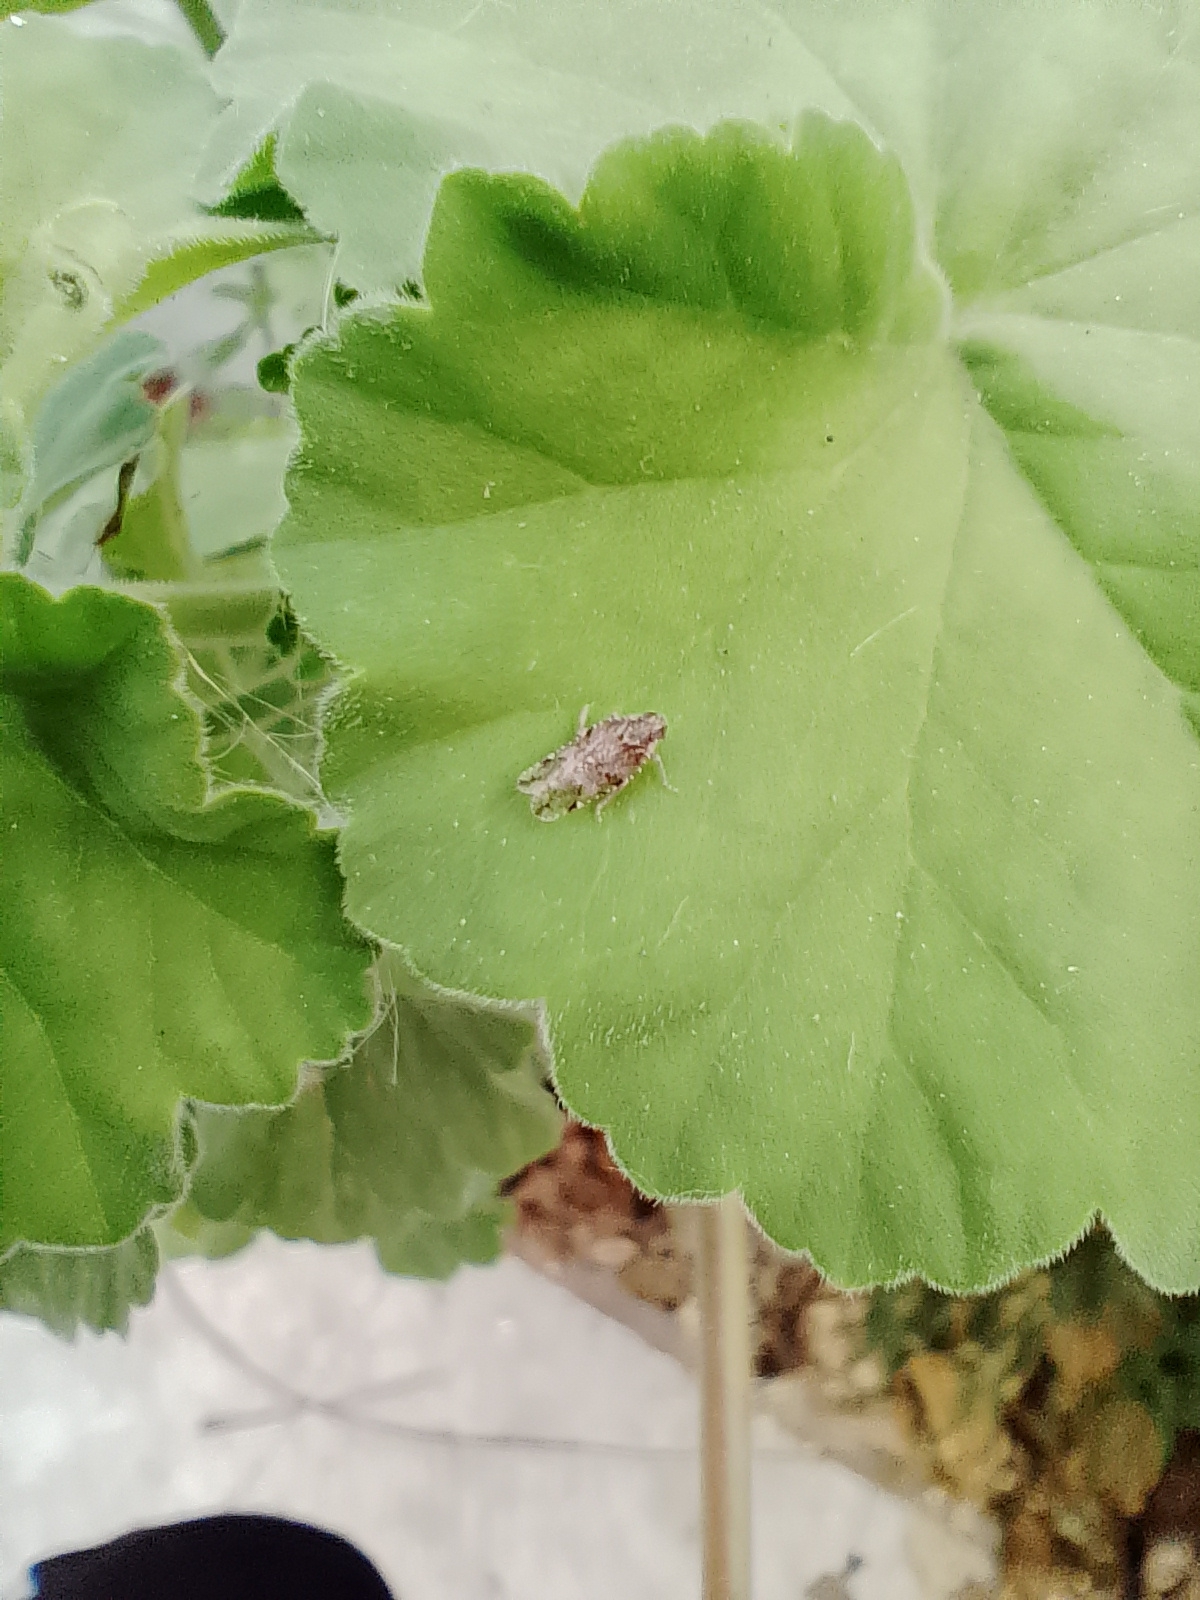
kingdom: Animalia
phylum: Arthropoda
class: Insecta
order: Hemiptera
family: Cixiidae
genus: Cixiosoma
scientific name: Cixiosoma bonaerense
